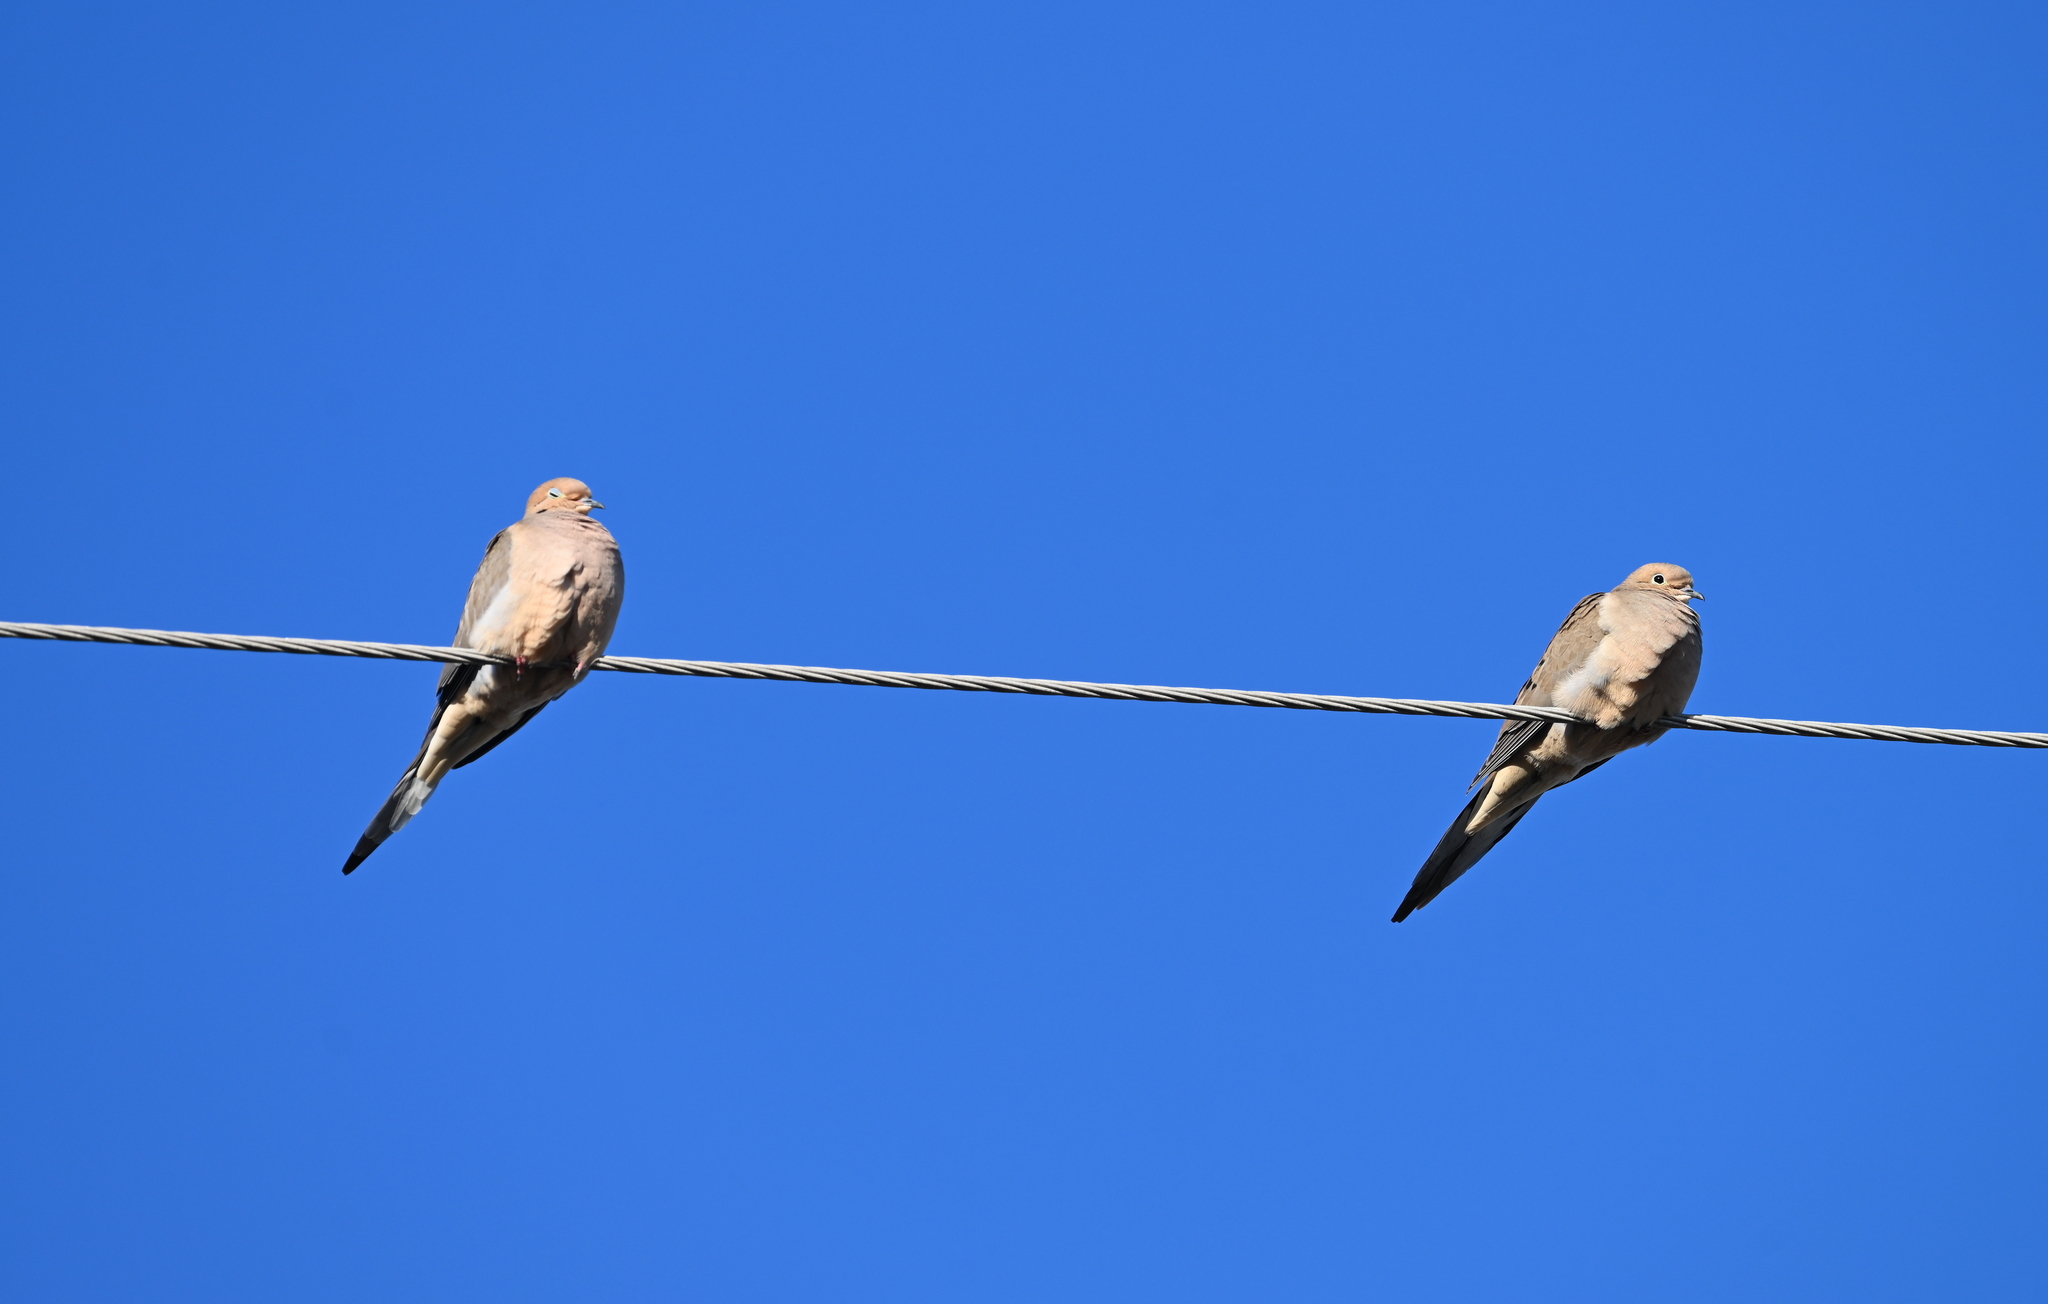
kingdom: Animalia
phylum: Chordata
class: Aves
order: Columbiformes
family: Columbidae
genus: Zenaida
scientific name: Zenaida macroura
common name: Mourning dove
